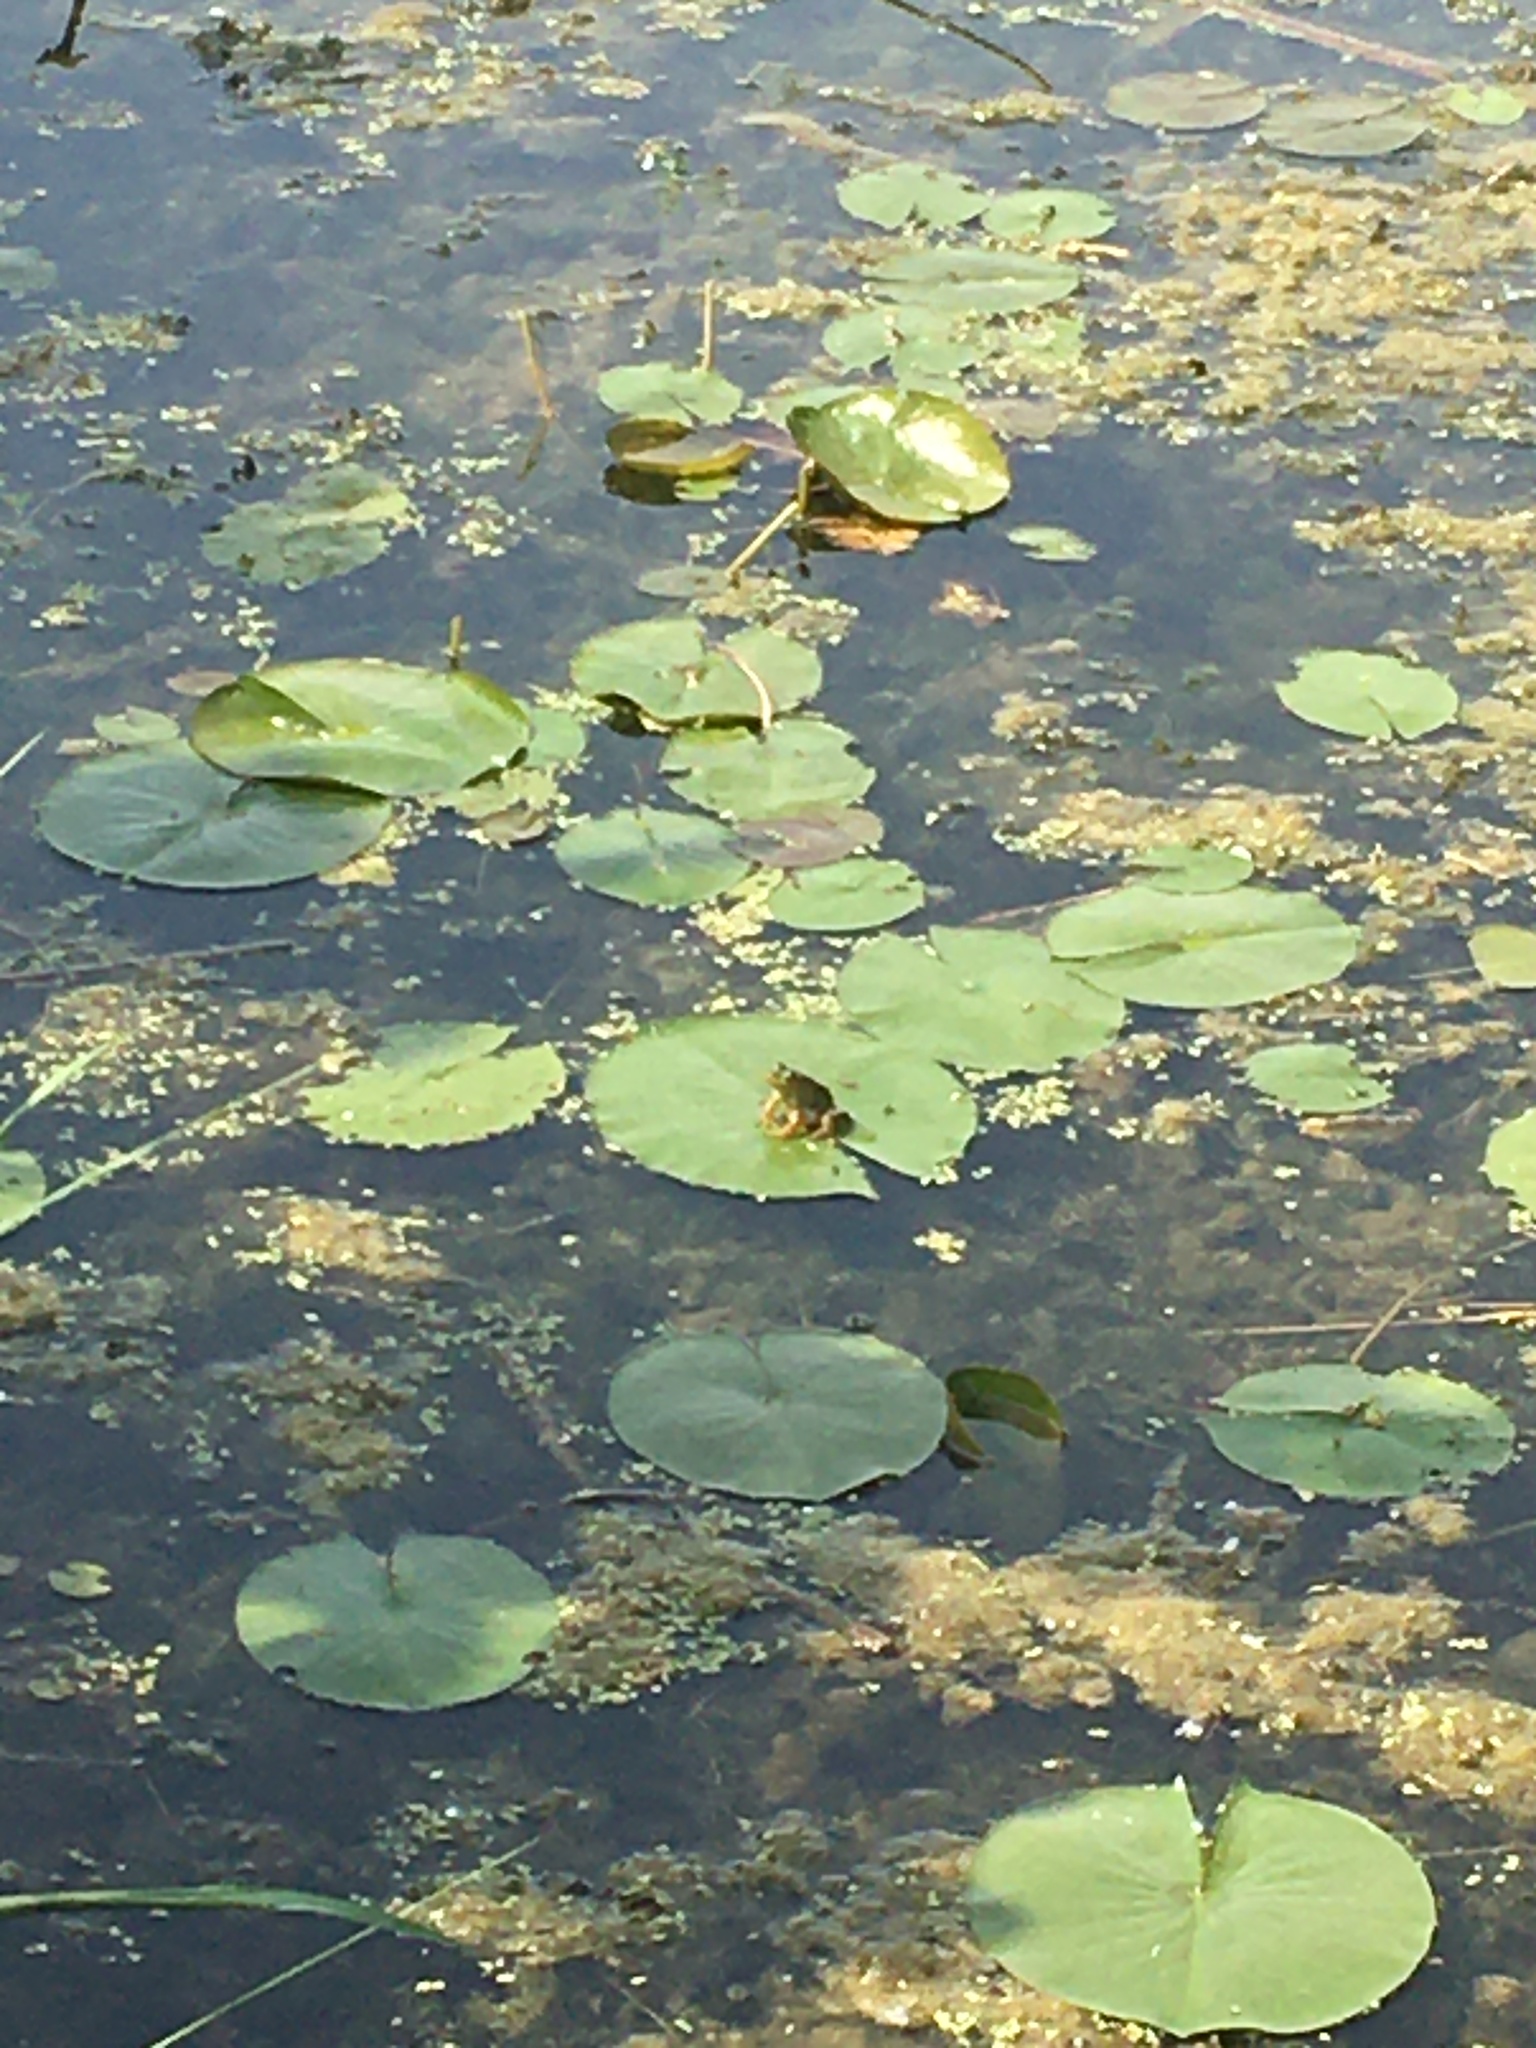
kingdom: Plantae
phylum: Tracheophyta
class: Magnoliopsida
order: Nymphaeales
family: Nymphaeaceae
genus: Nymphaea
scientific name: Nymphaea odorata
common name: Fragrant water-lily
